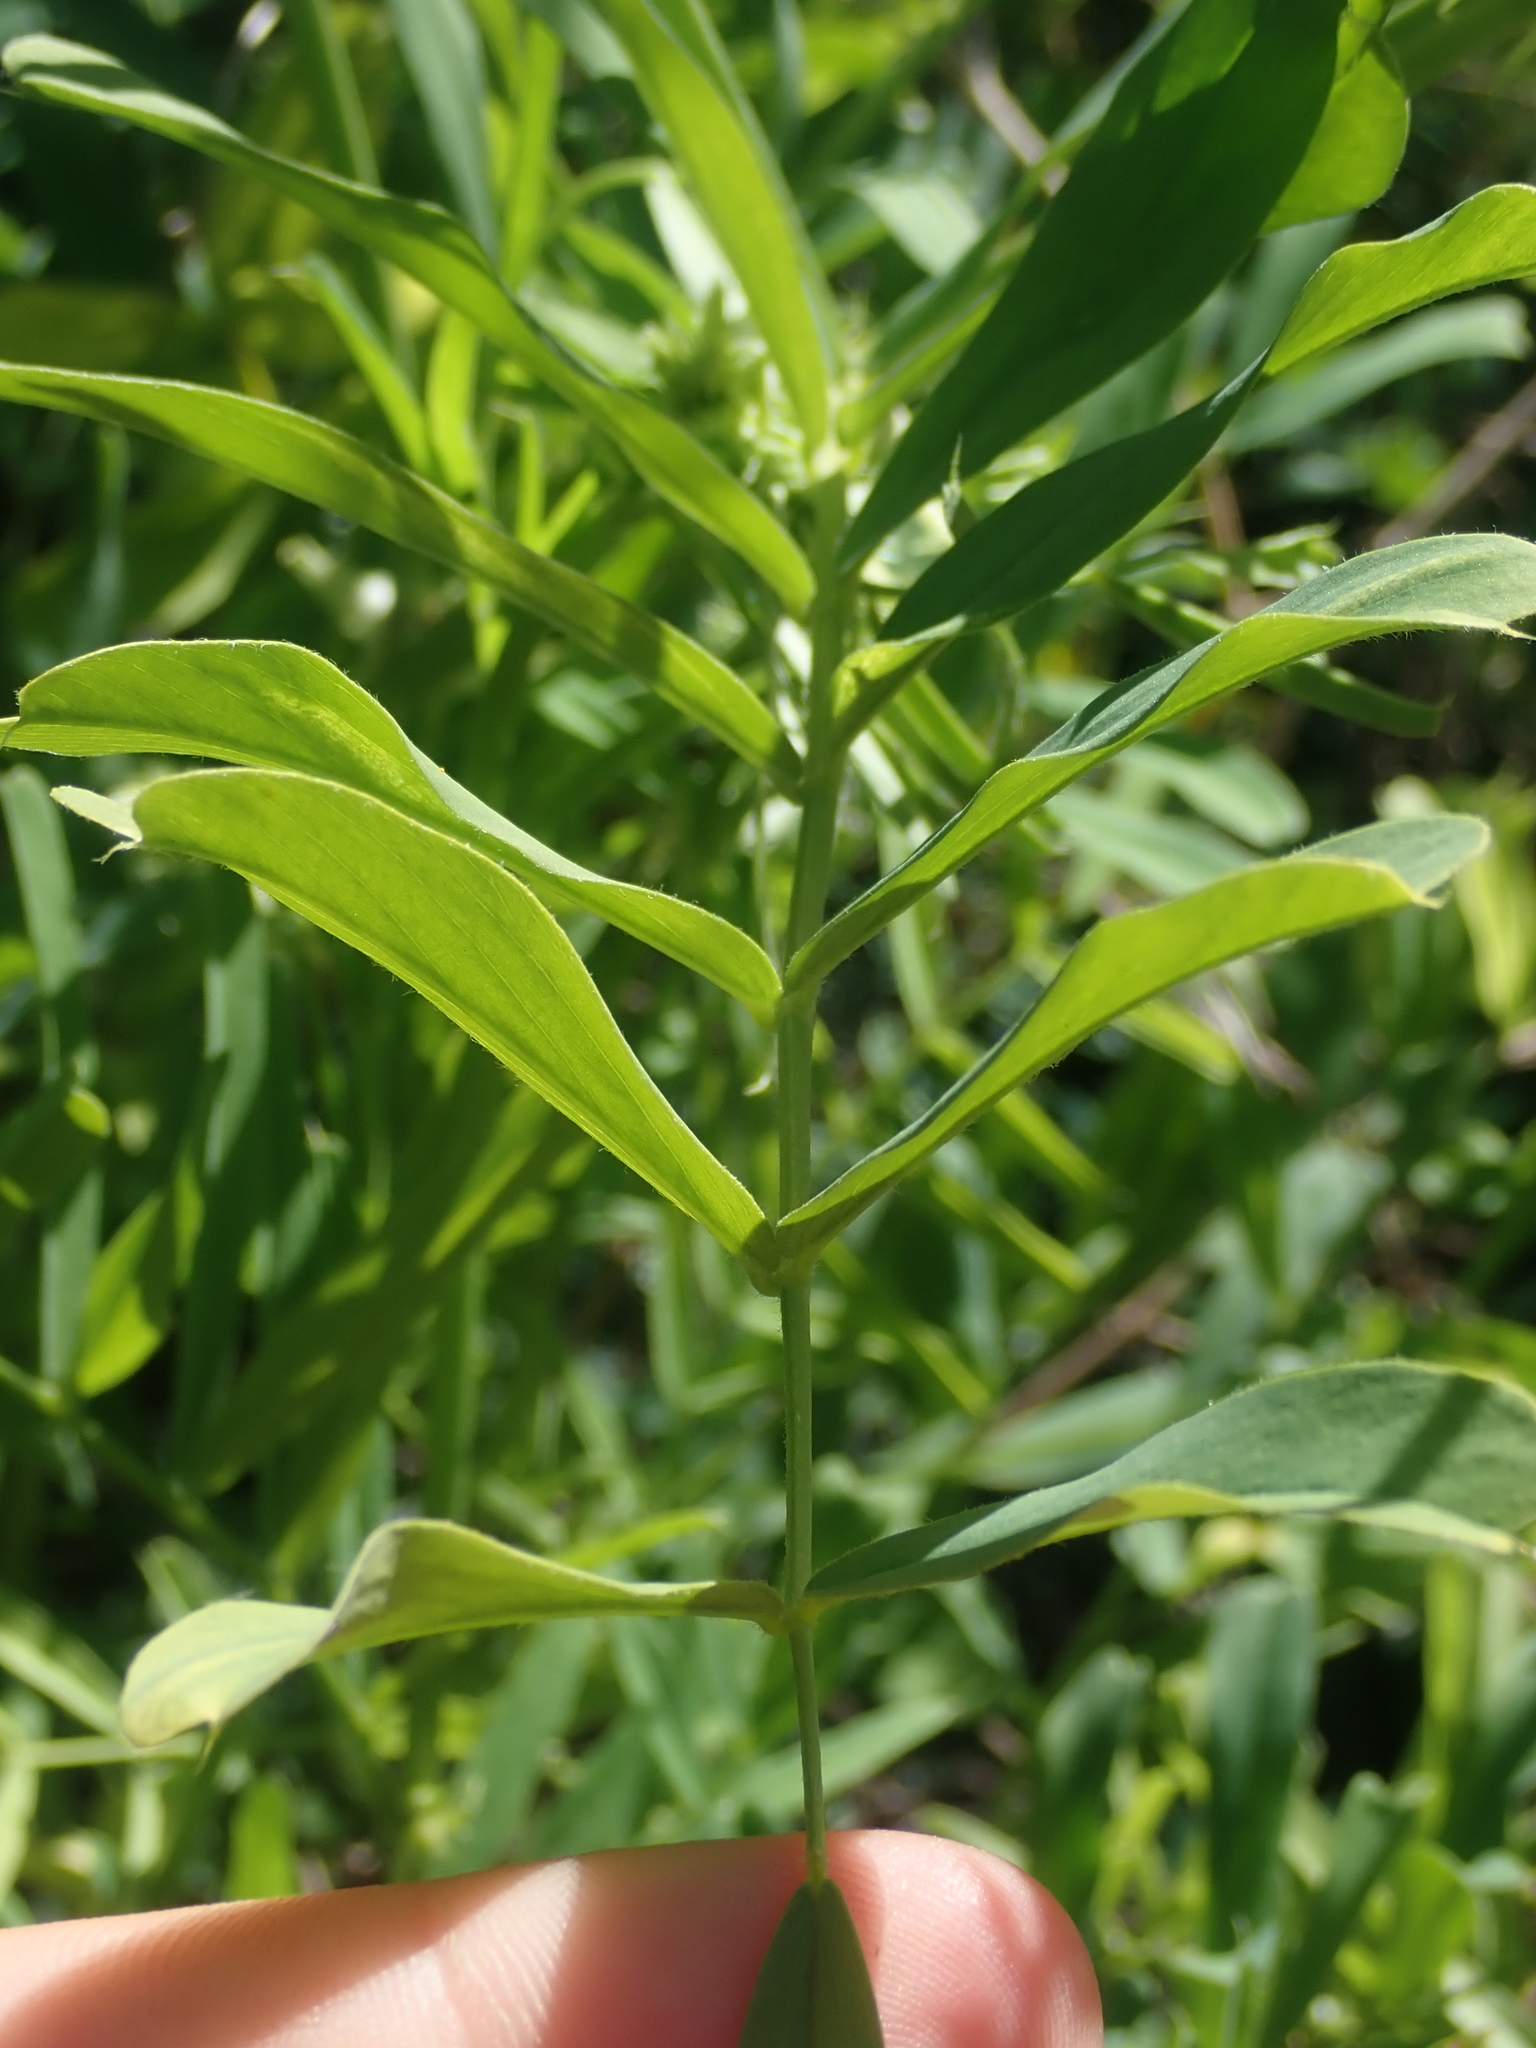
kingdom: Plantae
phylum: Tracheophyta
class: Magnoliopsida
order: Fabales
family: Fabaceae
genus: Galega
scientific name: Galega officinalis
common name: Goat's-rue
